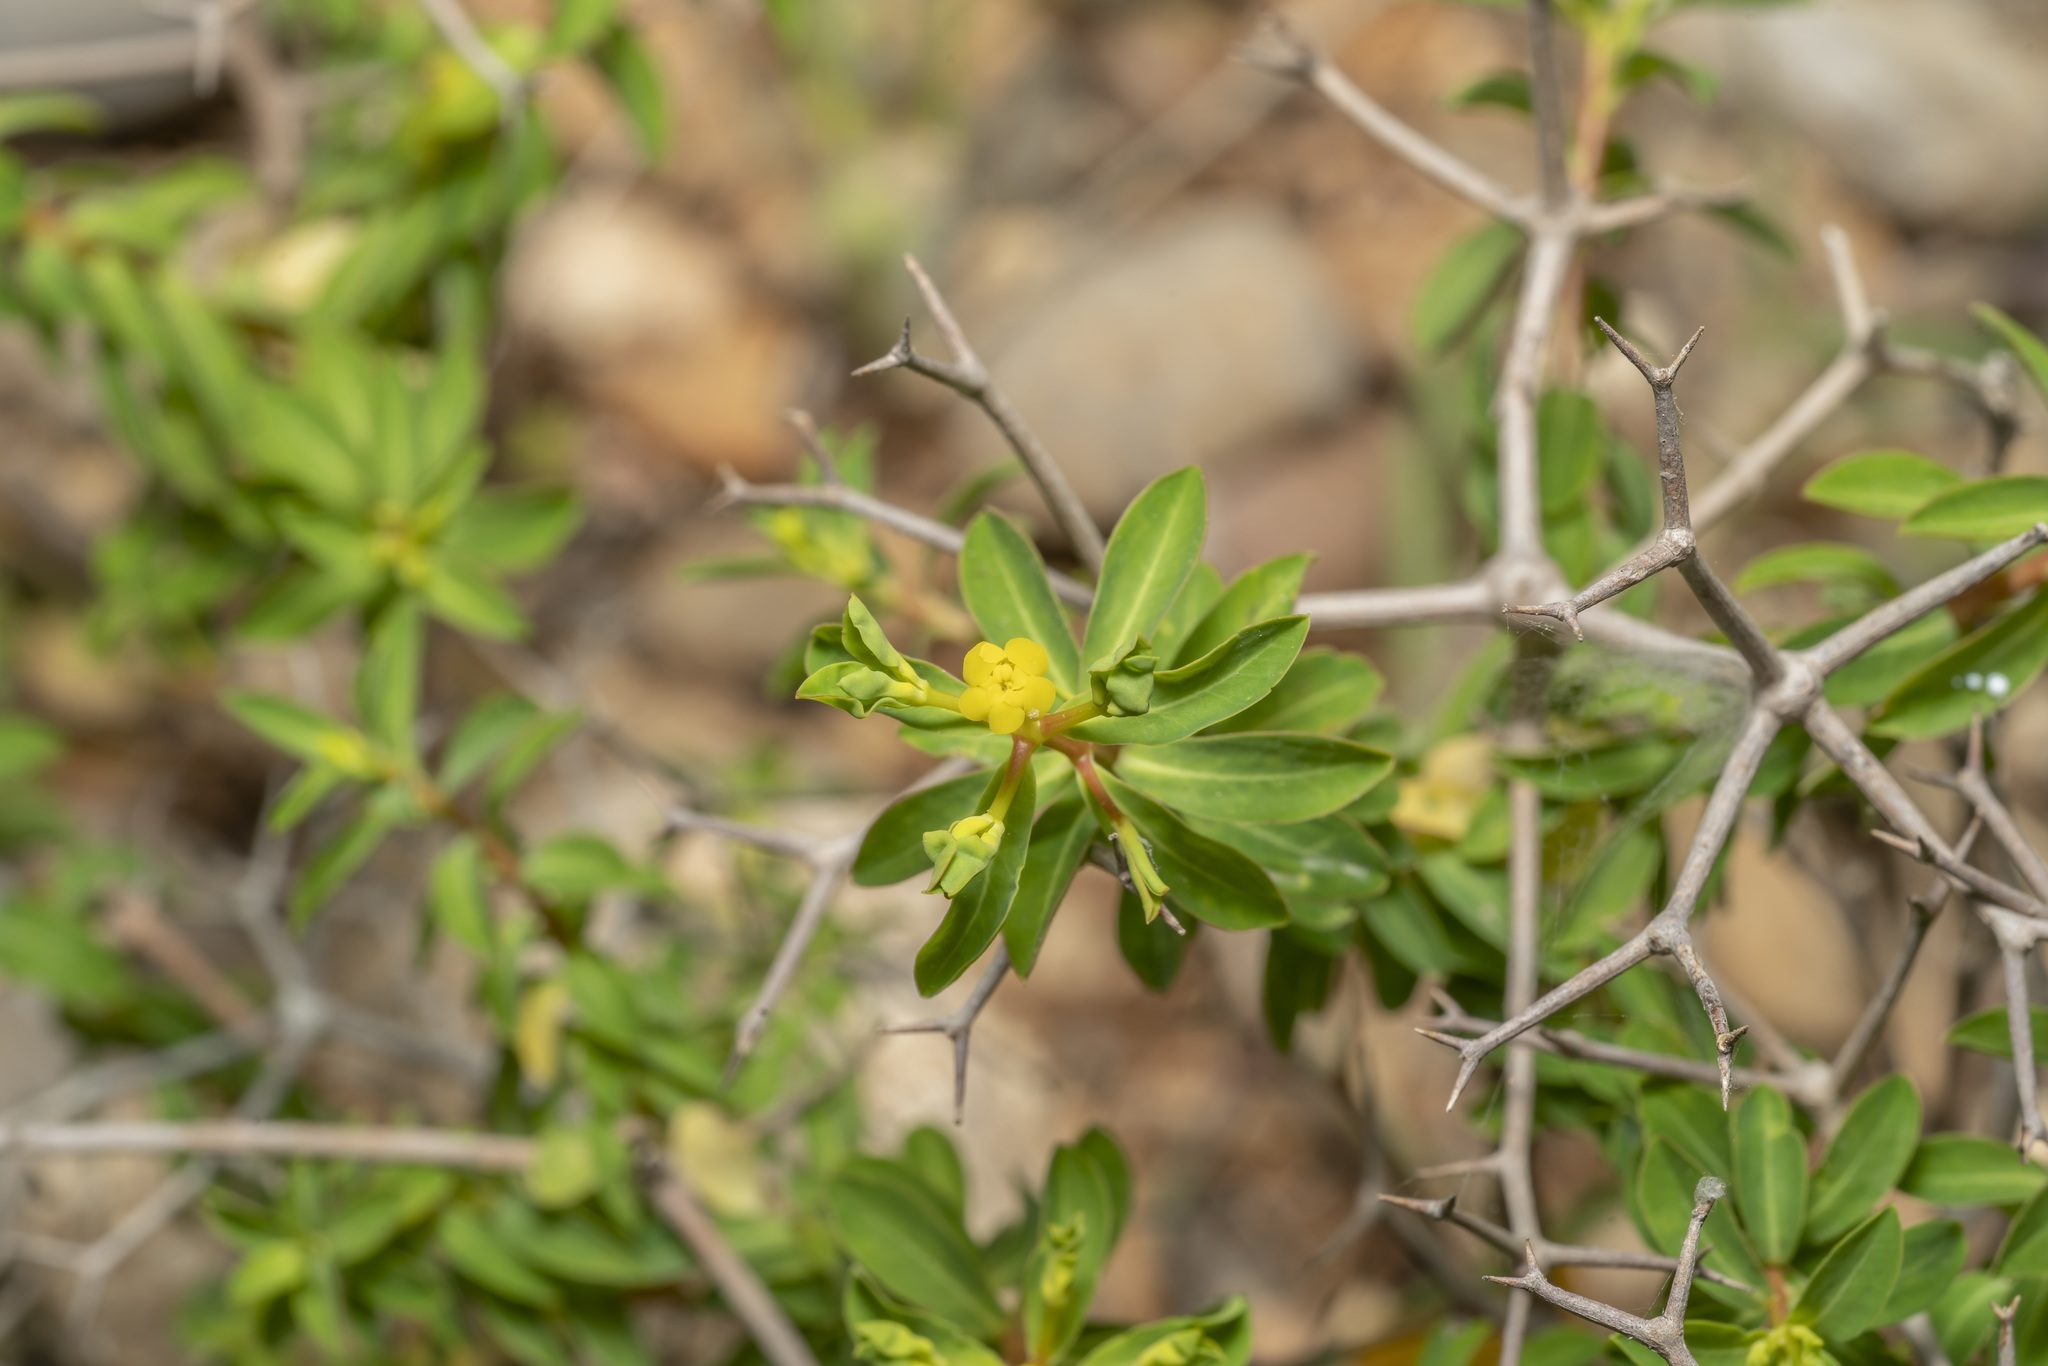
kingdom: Plantae
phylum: Tracheophyta
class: Magnoliopsida
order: Malpighiales
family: Euphorbiaceae
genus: Euphorbia
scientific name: Euphorbia acanthothamnos
